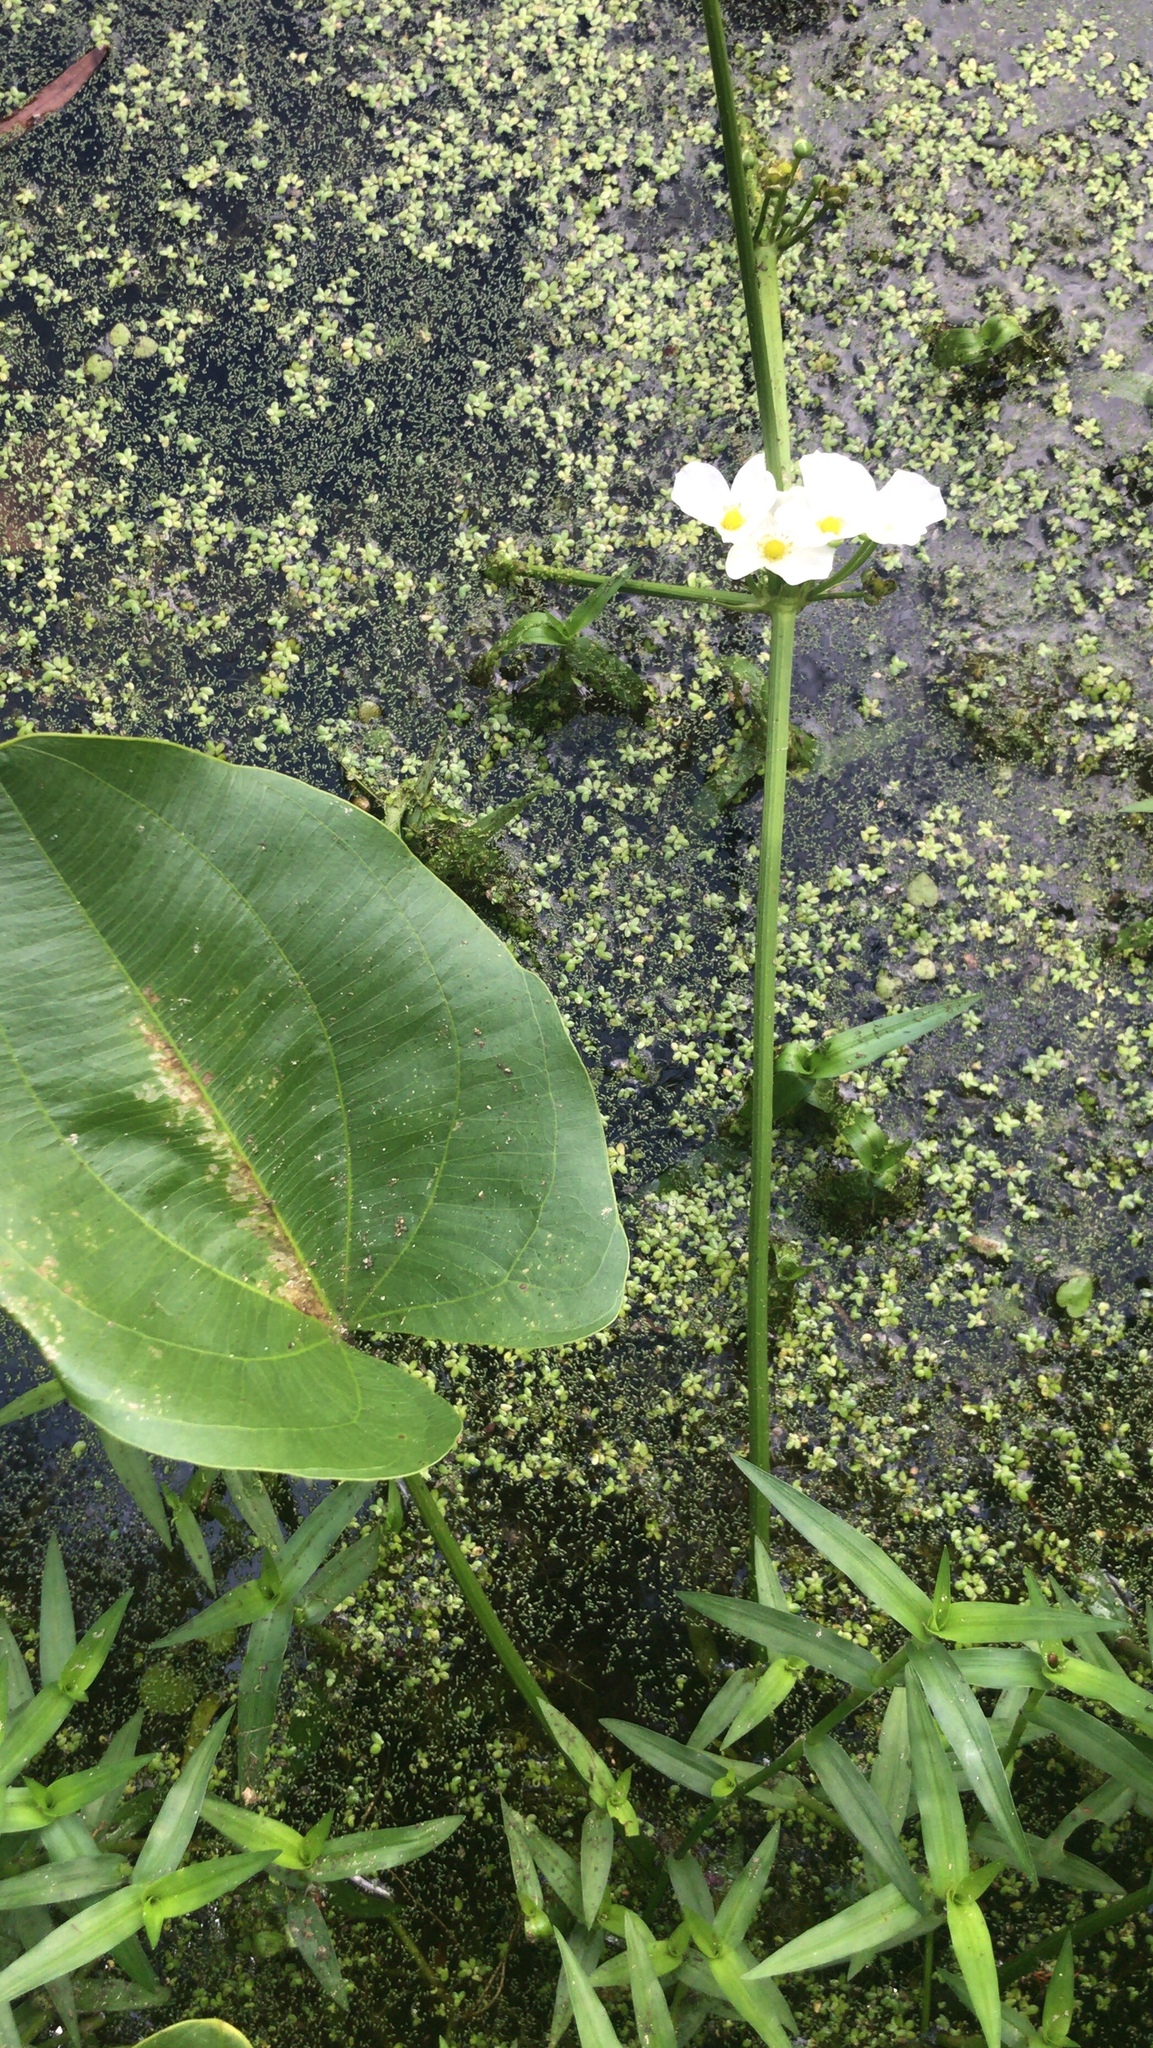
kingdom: Plantae
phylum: Tracheophyta
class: Liliopsida
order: Alismatales
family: Alismataceae
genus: Aquarius
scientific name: Aquarius cordifolius
